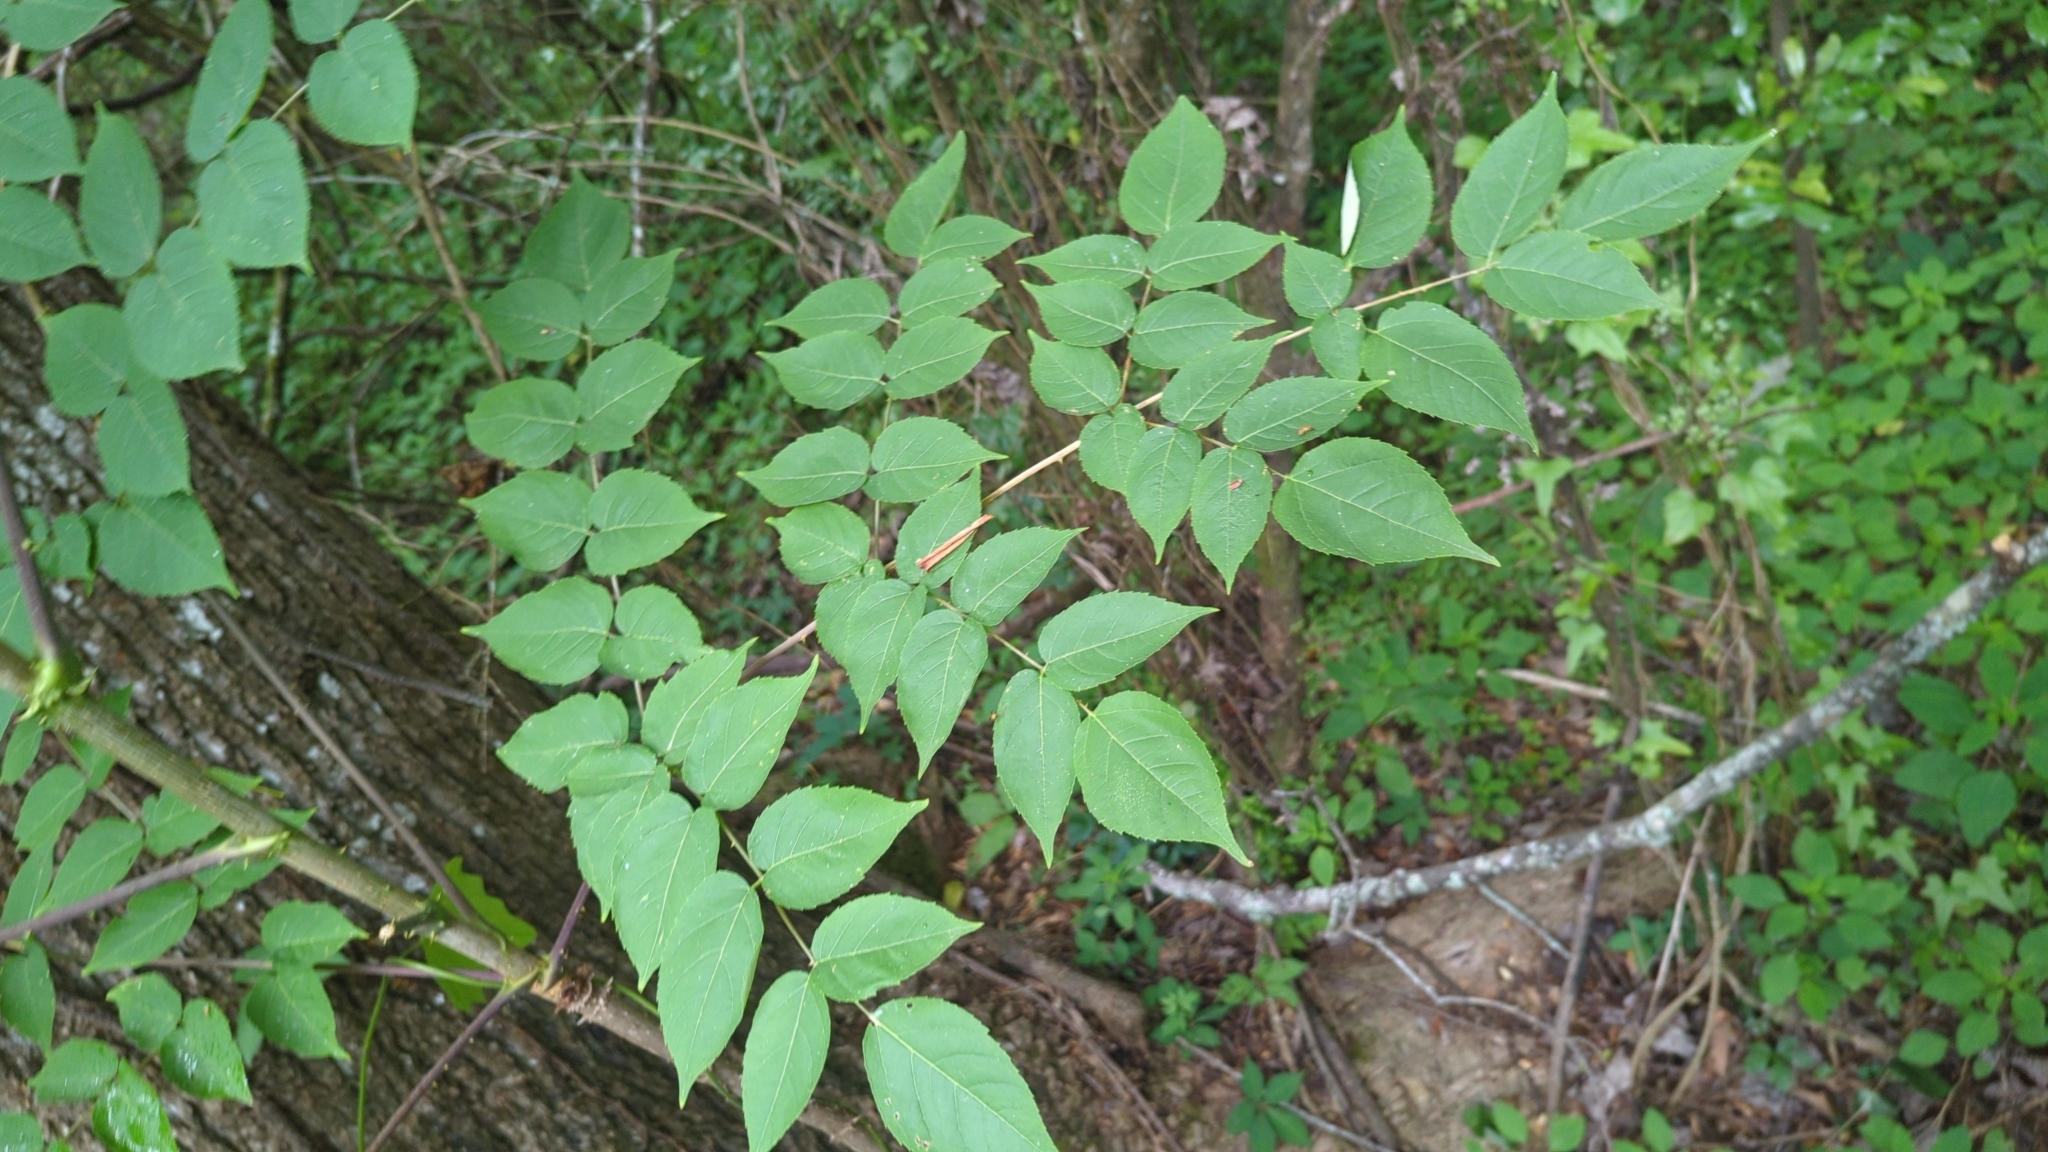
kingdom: Plantae
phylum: Tracheophyta
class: Magnoliopsida
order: Apiales
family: Araliaceae
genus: Aralia
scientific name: Aralia spinosa
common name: Hercules'-club
